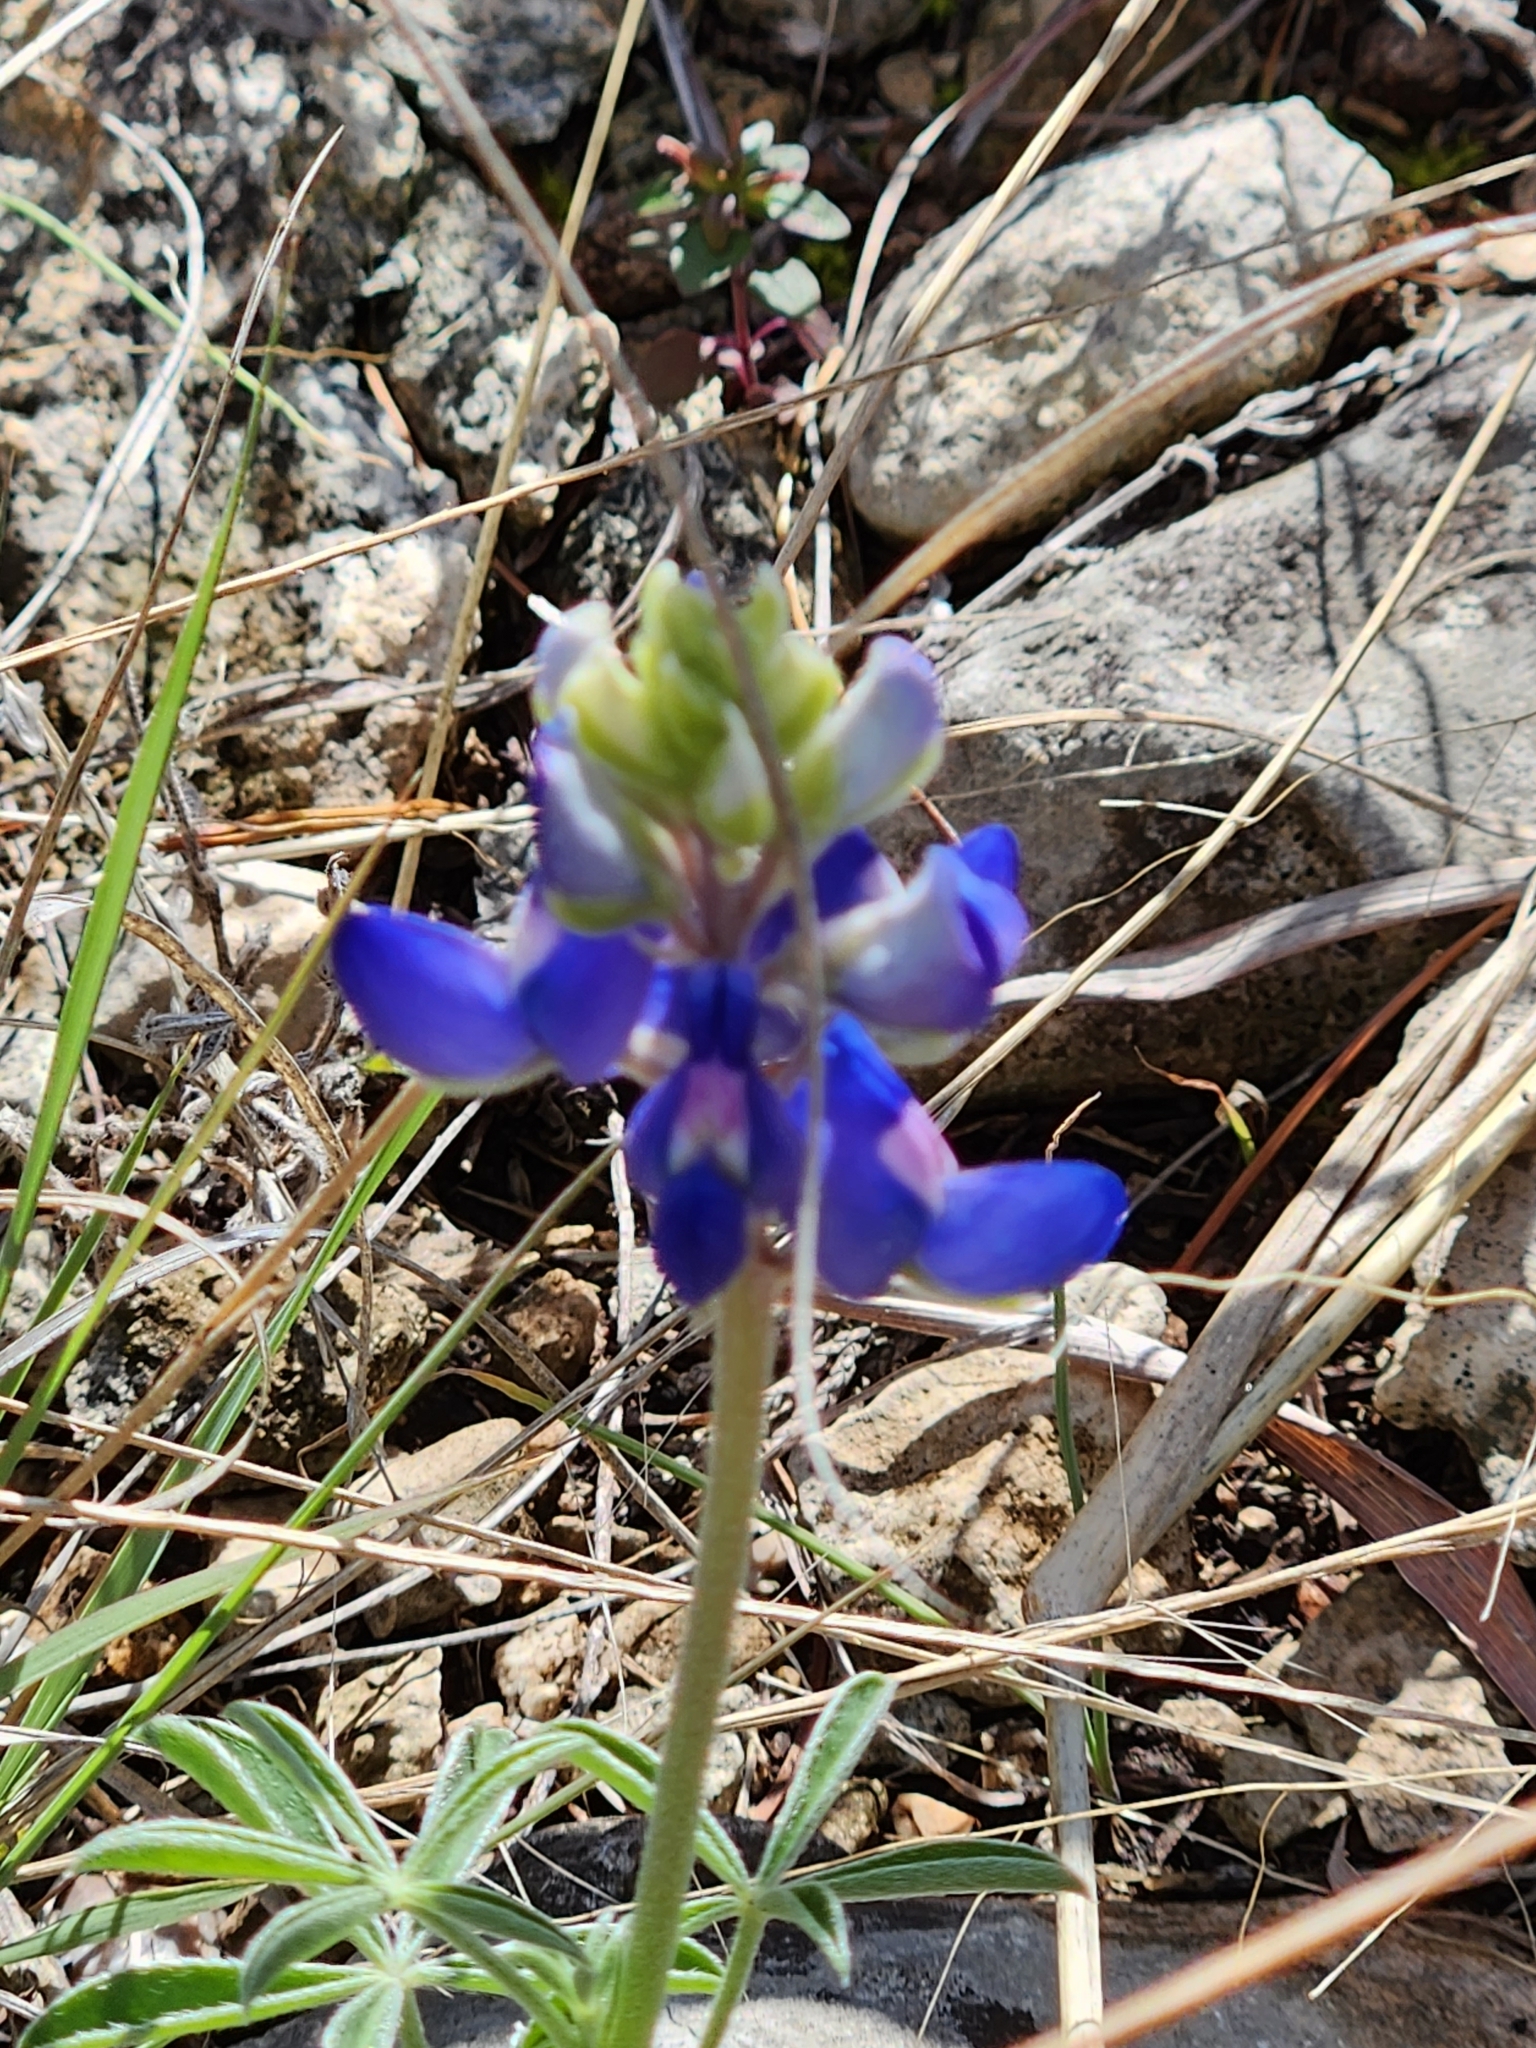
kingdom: Plantae
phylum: Tracheophyta
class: Magnoliopsida
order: Fabales
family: Fabaceae
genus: Lupinus
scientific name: Lupinus texensis
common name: Texas bluebonnet
